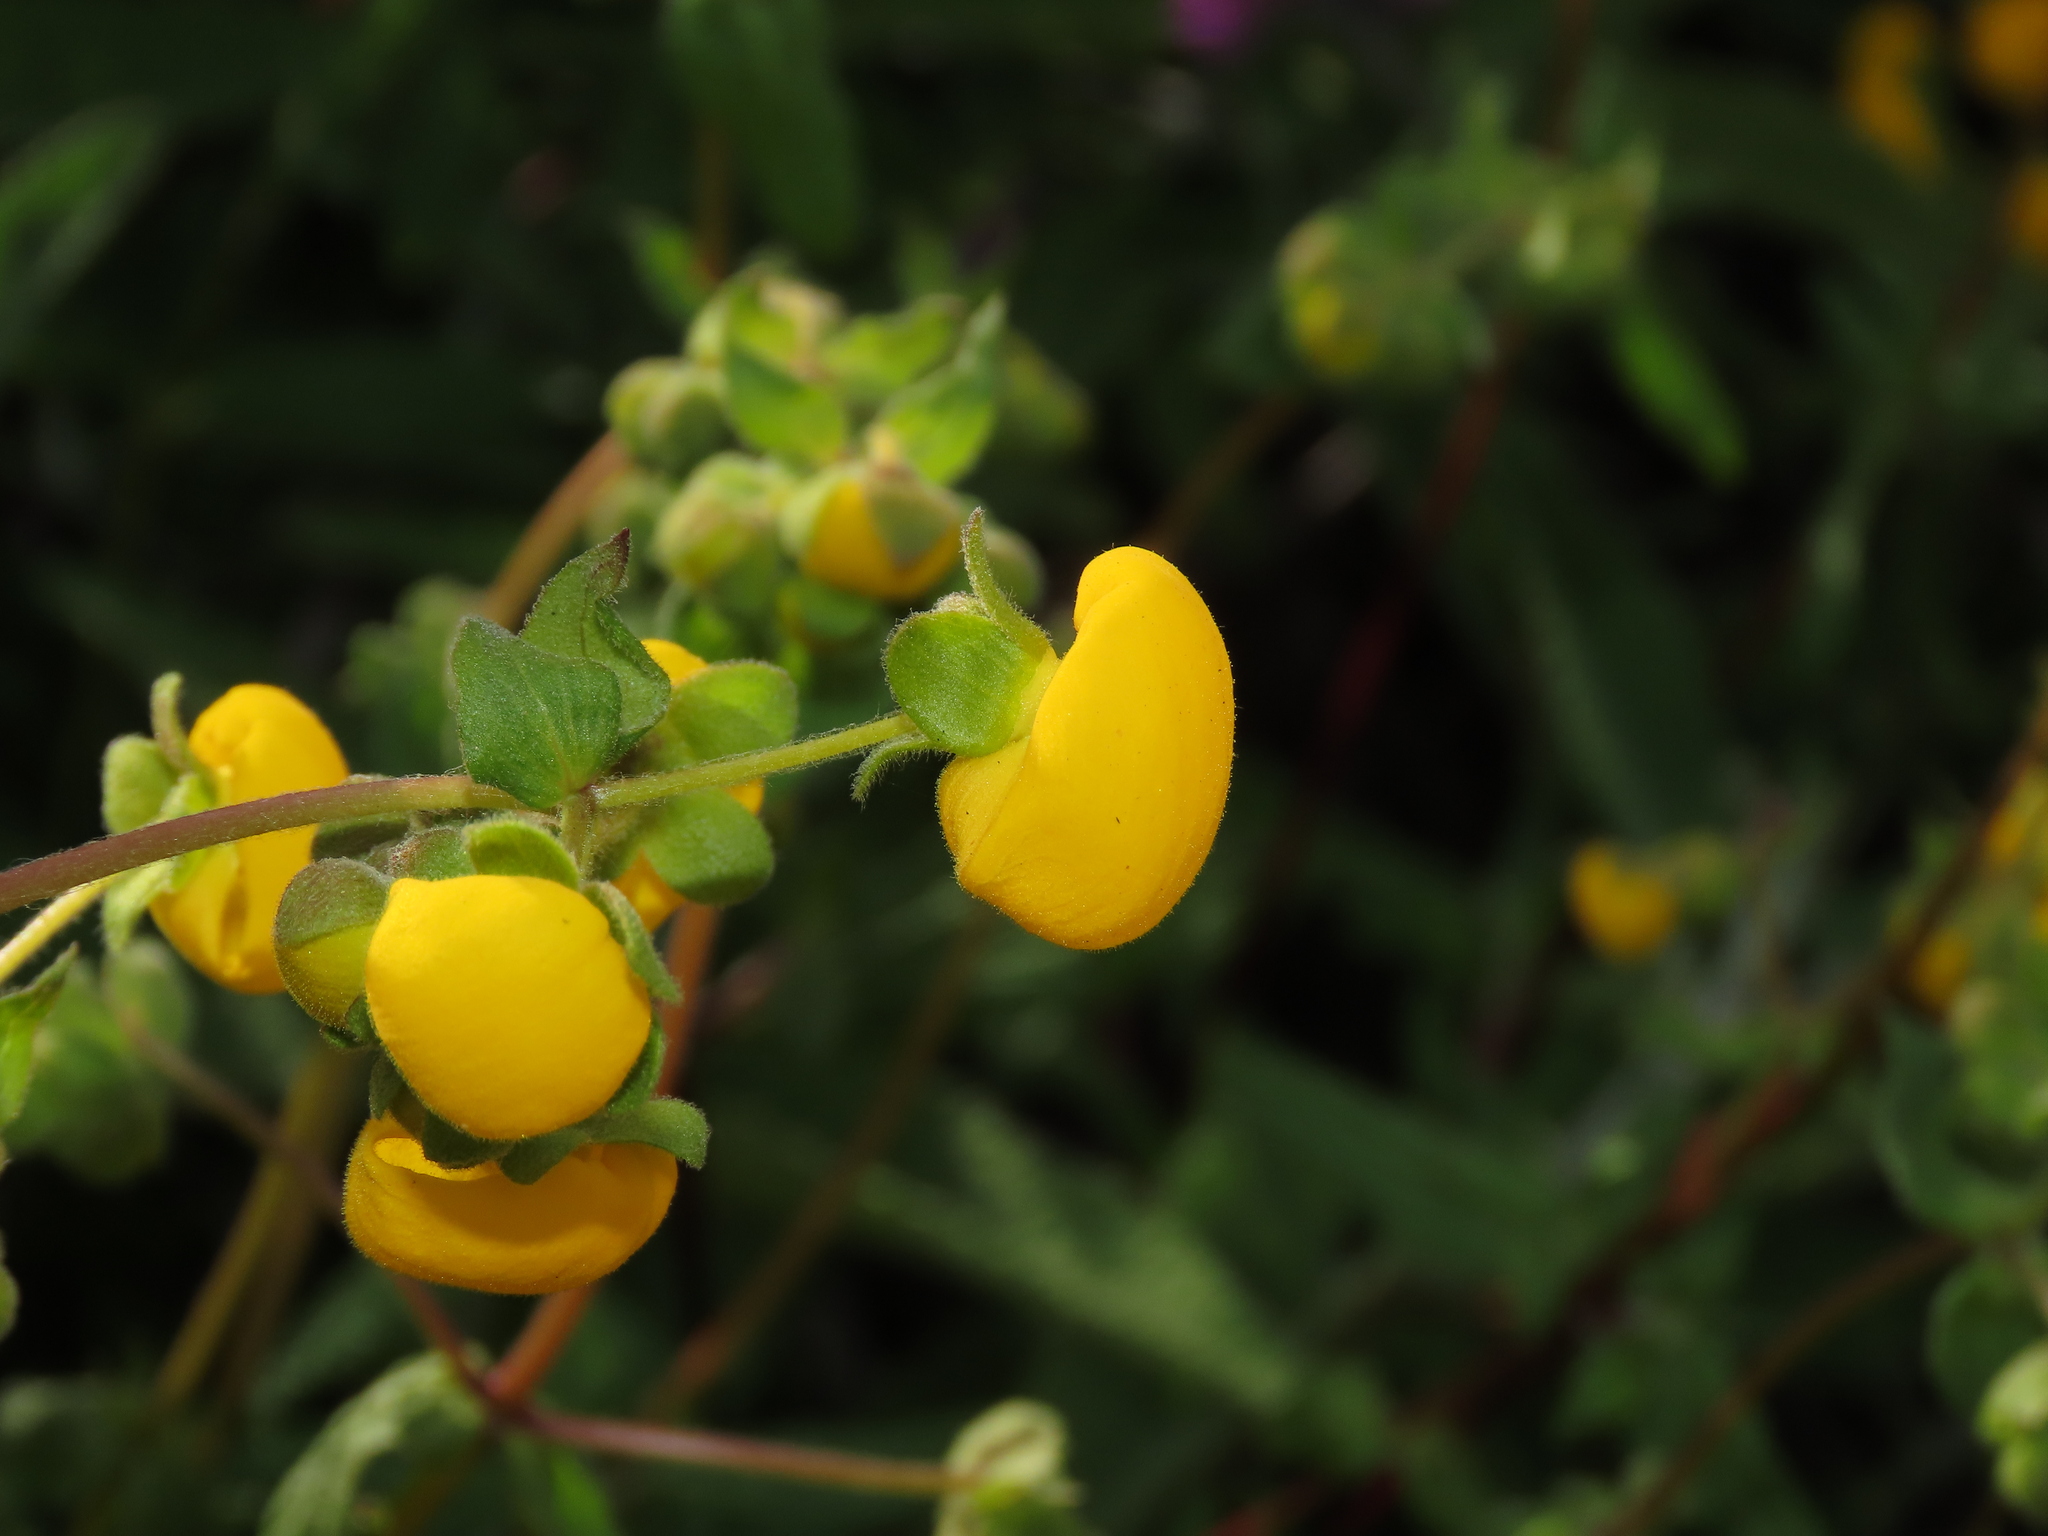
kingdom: Plantae
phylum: Tracheophyta
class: Magnoliopsida
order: Lamiales
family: Calceolariaceae
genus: Calceolaria
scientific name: Calceolaria ascendens
